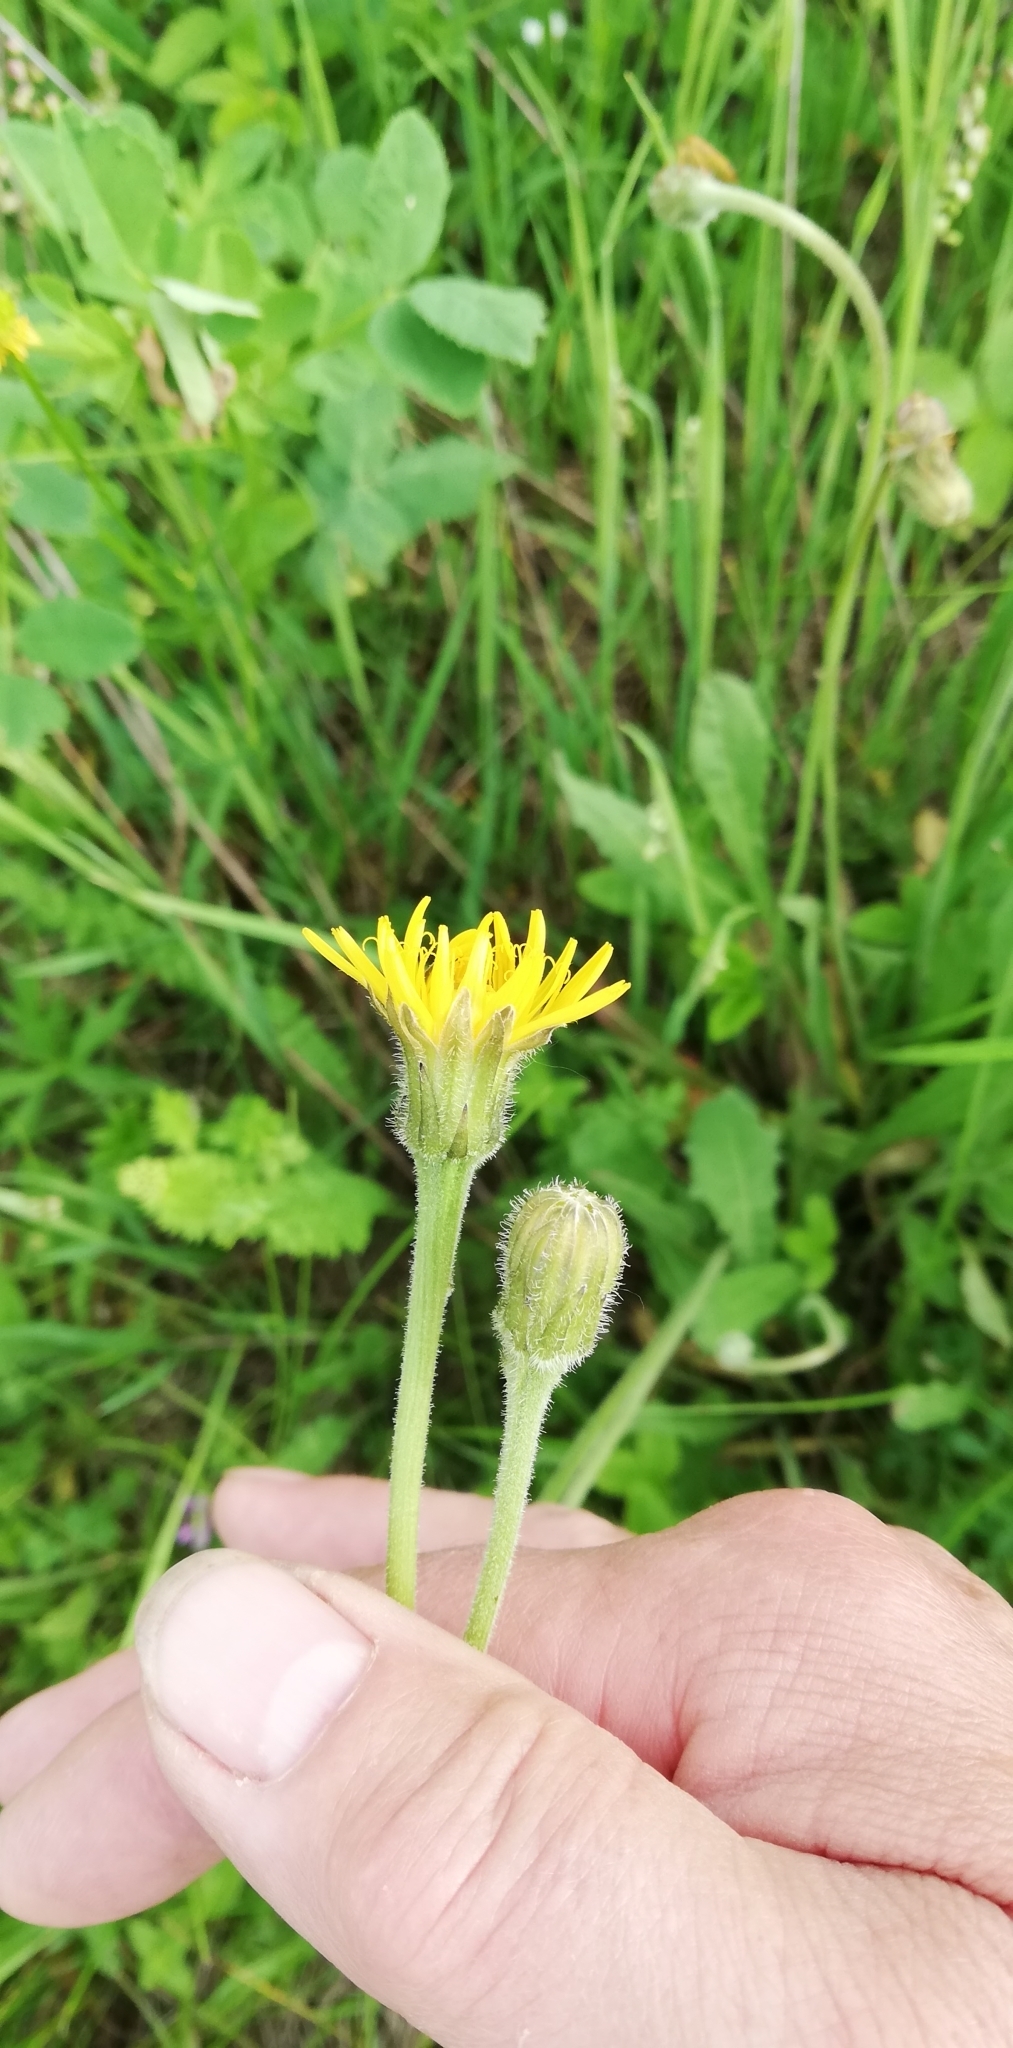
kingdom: Plantae
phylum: Tracheophyta
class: Magnoliopsida
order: Asterales
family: Asteraceae
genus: Leontodon
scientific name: Leontodon hispidus
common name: Rough hawkbit
